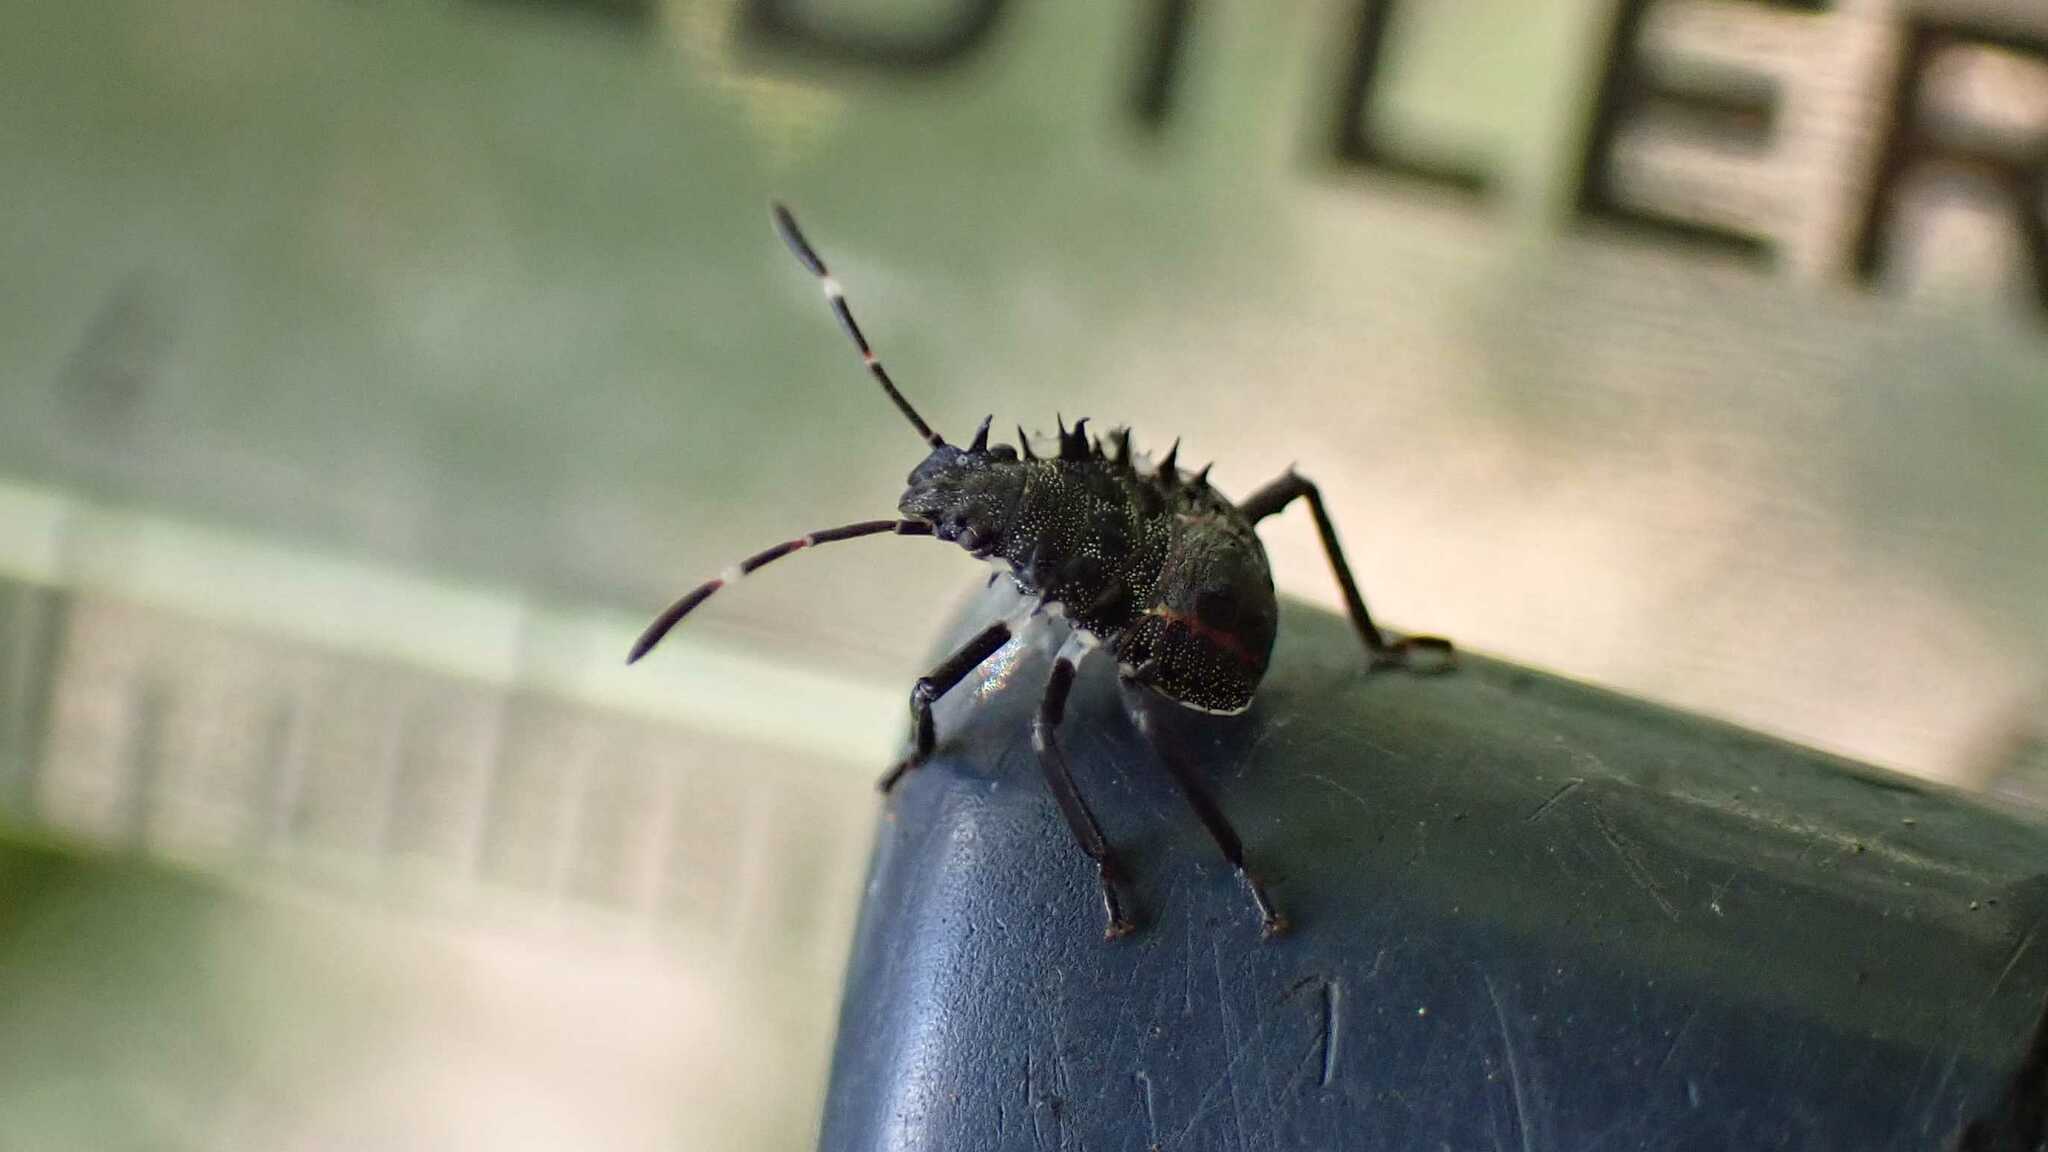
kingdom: Animalia
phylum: Arthropoda
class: Insecta
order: Hemiptera
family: Pentatomidae
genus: Halyomorpha
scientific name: Halyomorpha halys
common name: Brown marmorated stink bug
